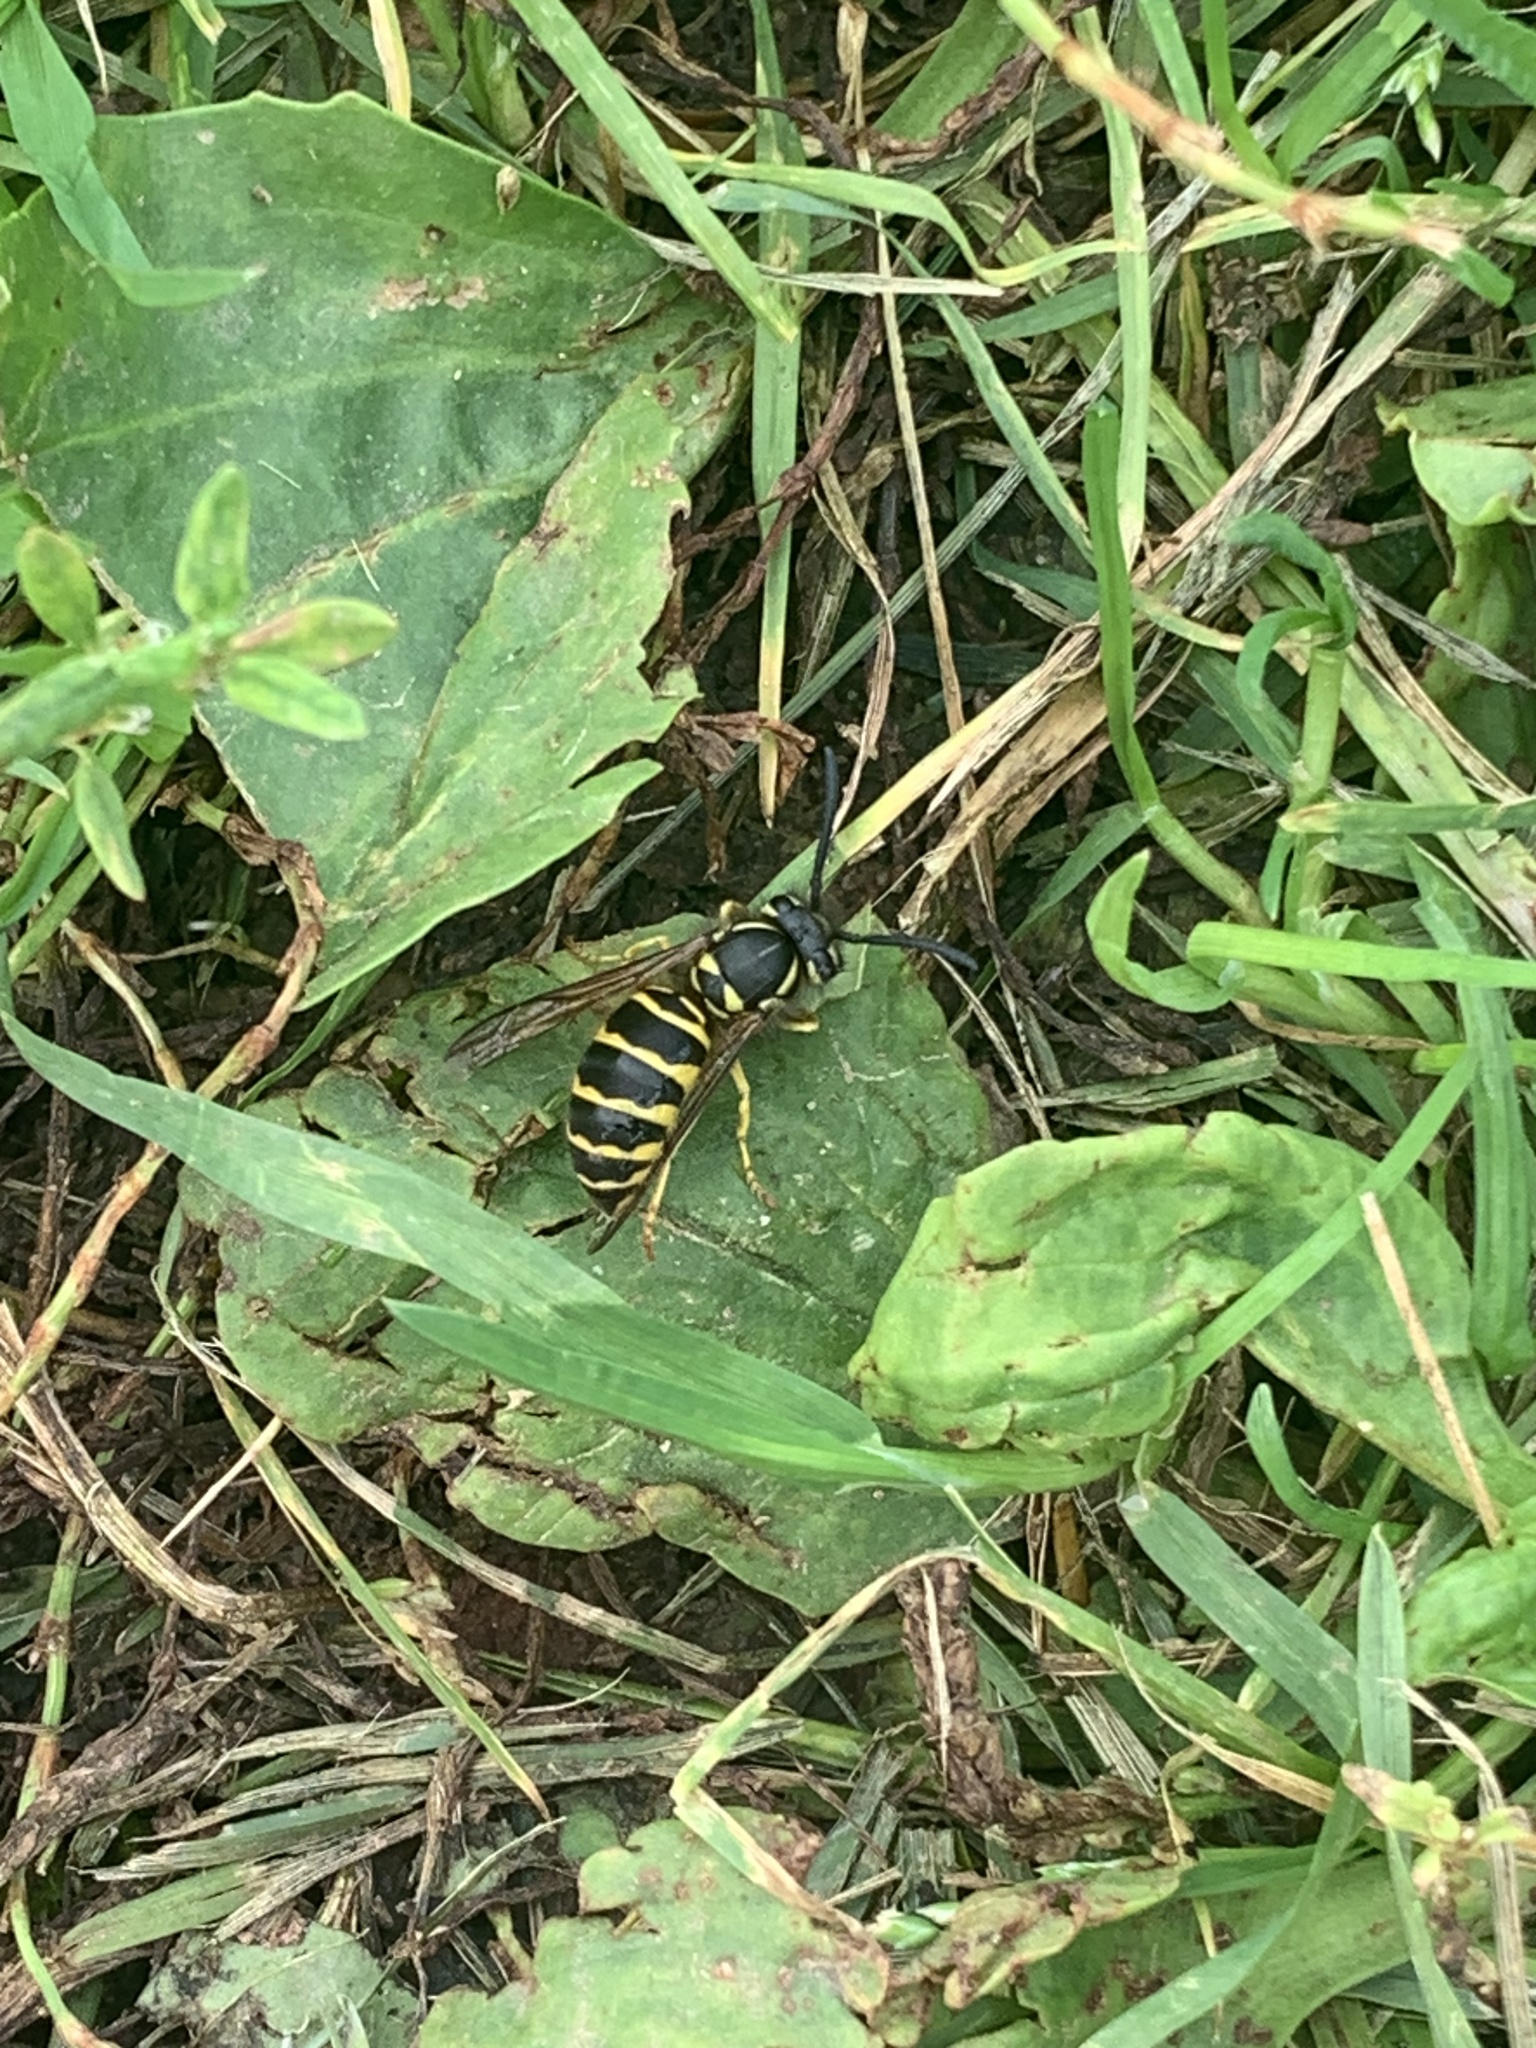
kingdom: Animalia
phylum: Arthropoda
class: Insecta
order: Hymenoptera
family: Vespidae
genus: Vespula
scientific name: Vespula maculifrons
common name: Eastern yellowjacket
